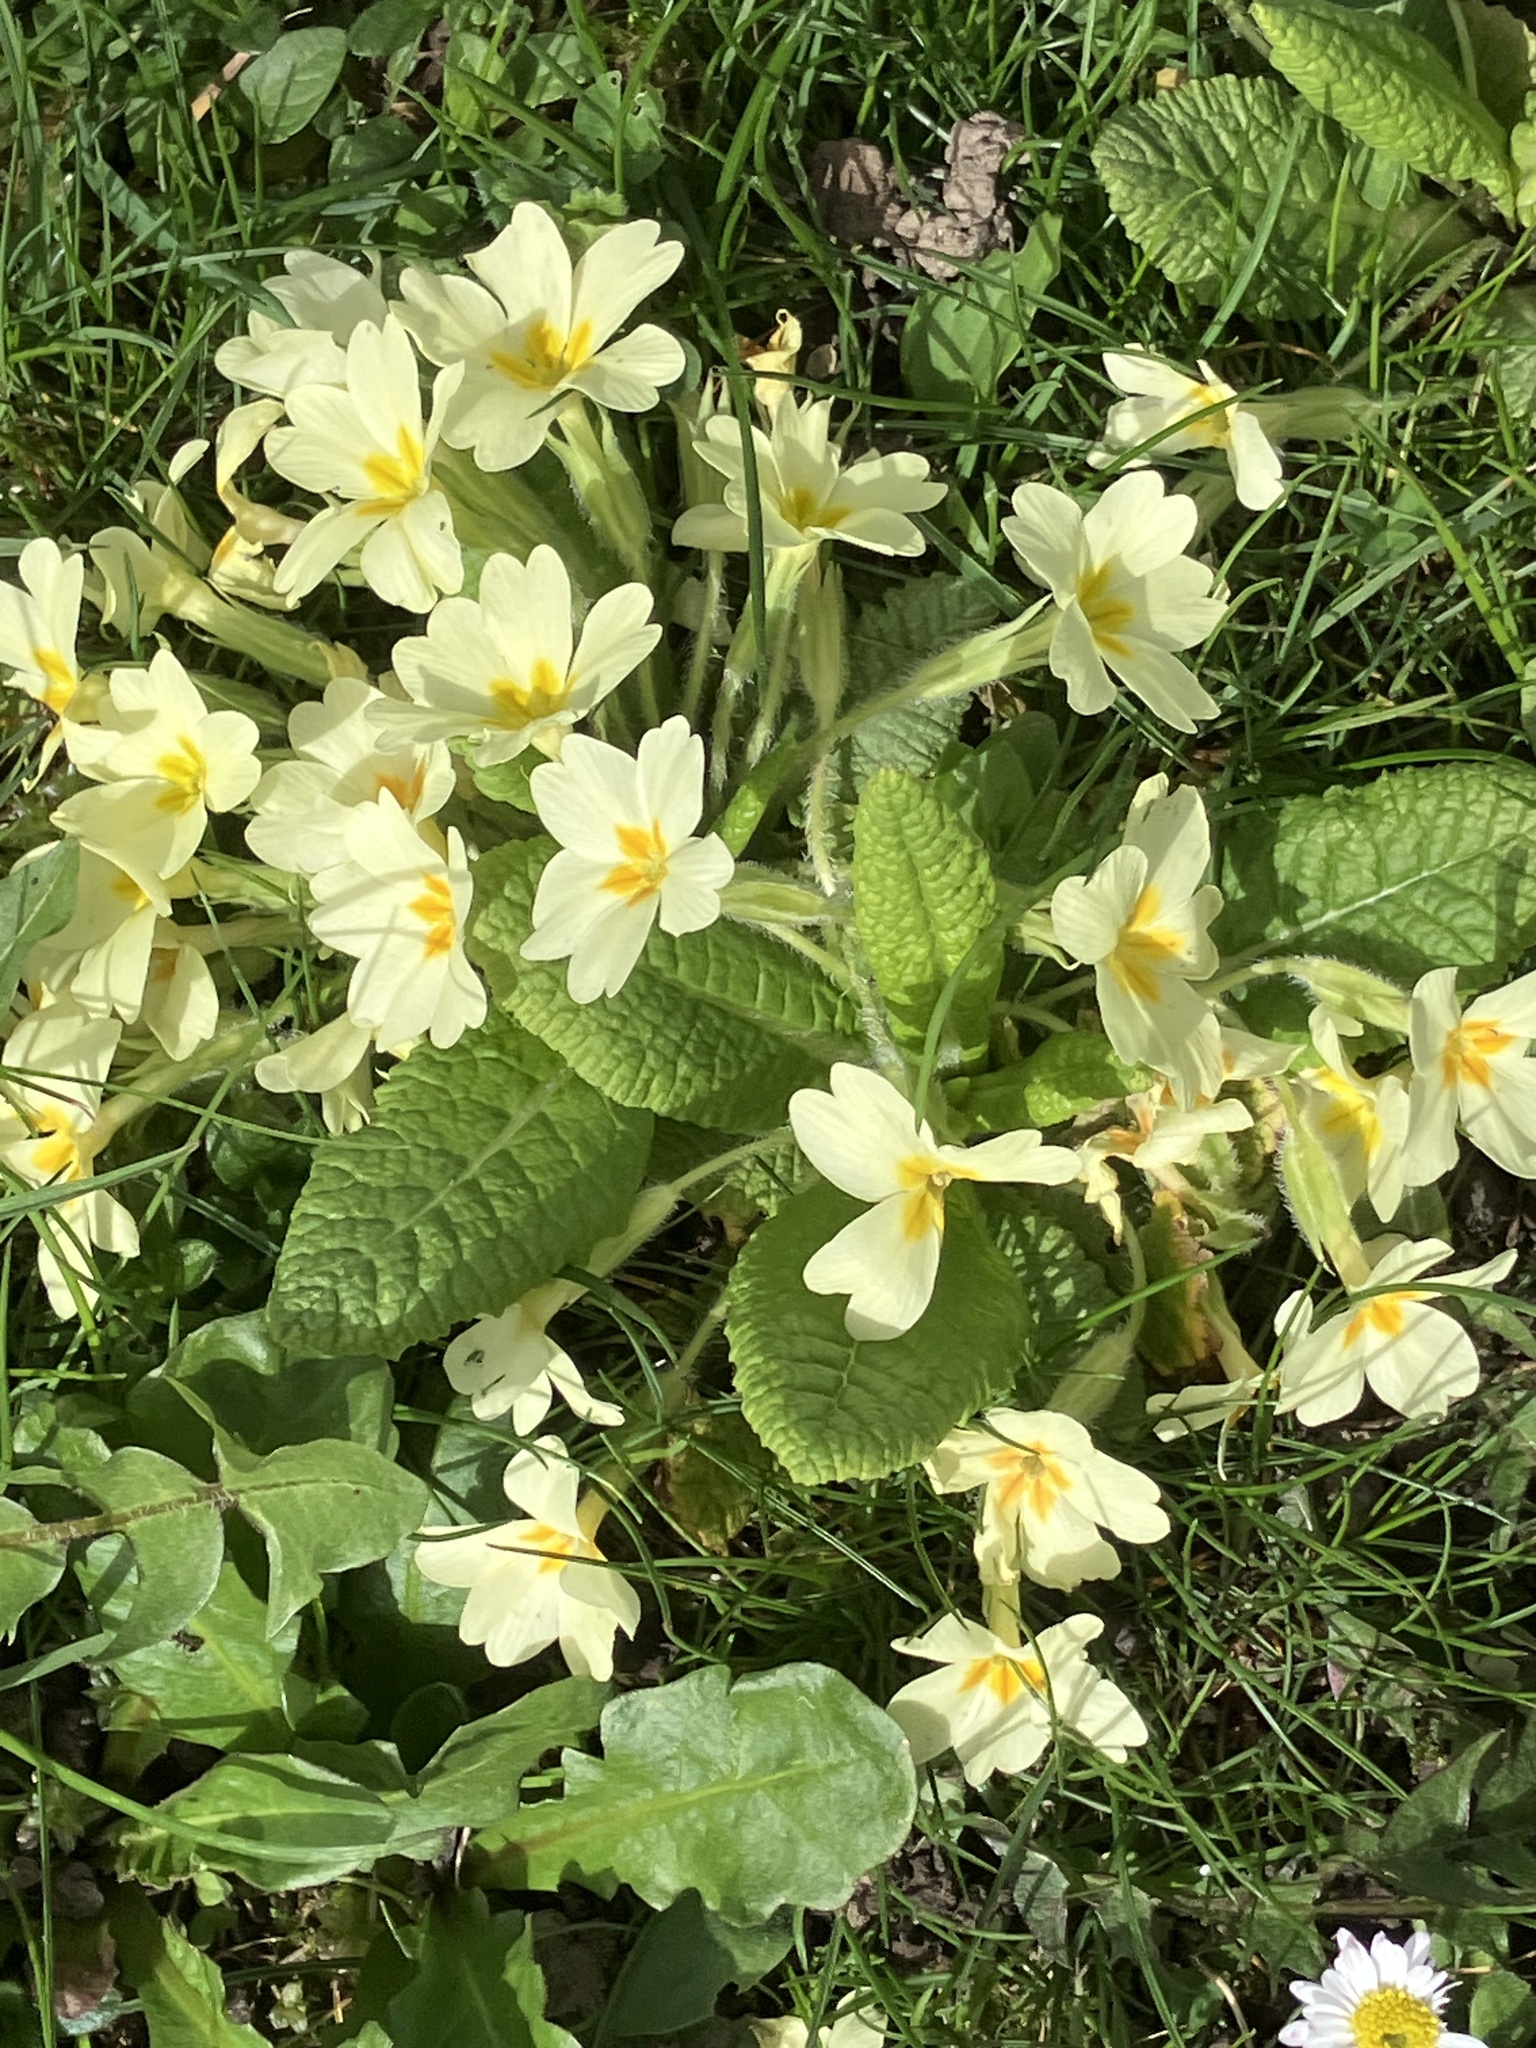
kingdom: Plantae
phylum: Tracheophyta
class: Magnoliopsida
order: Ericales
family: Primulaceae
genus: Primula
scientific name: Primula vulgaris
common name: Primrose
